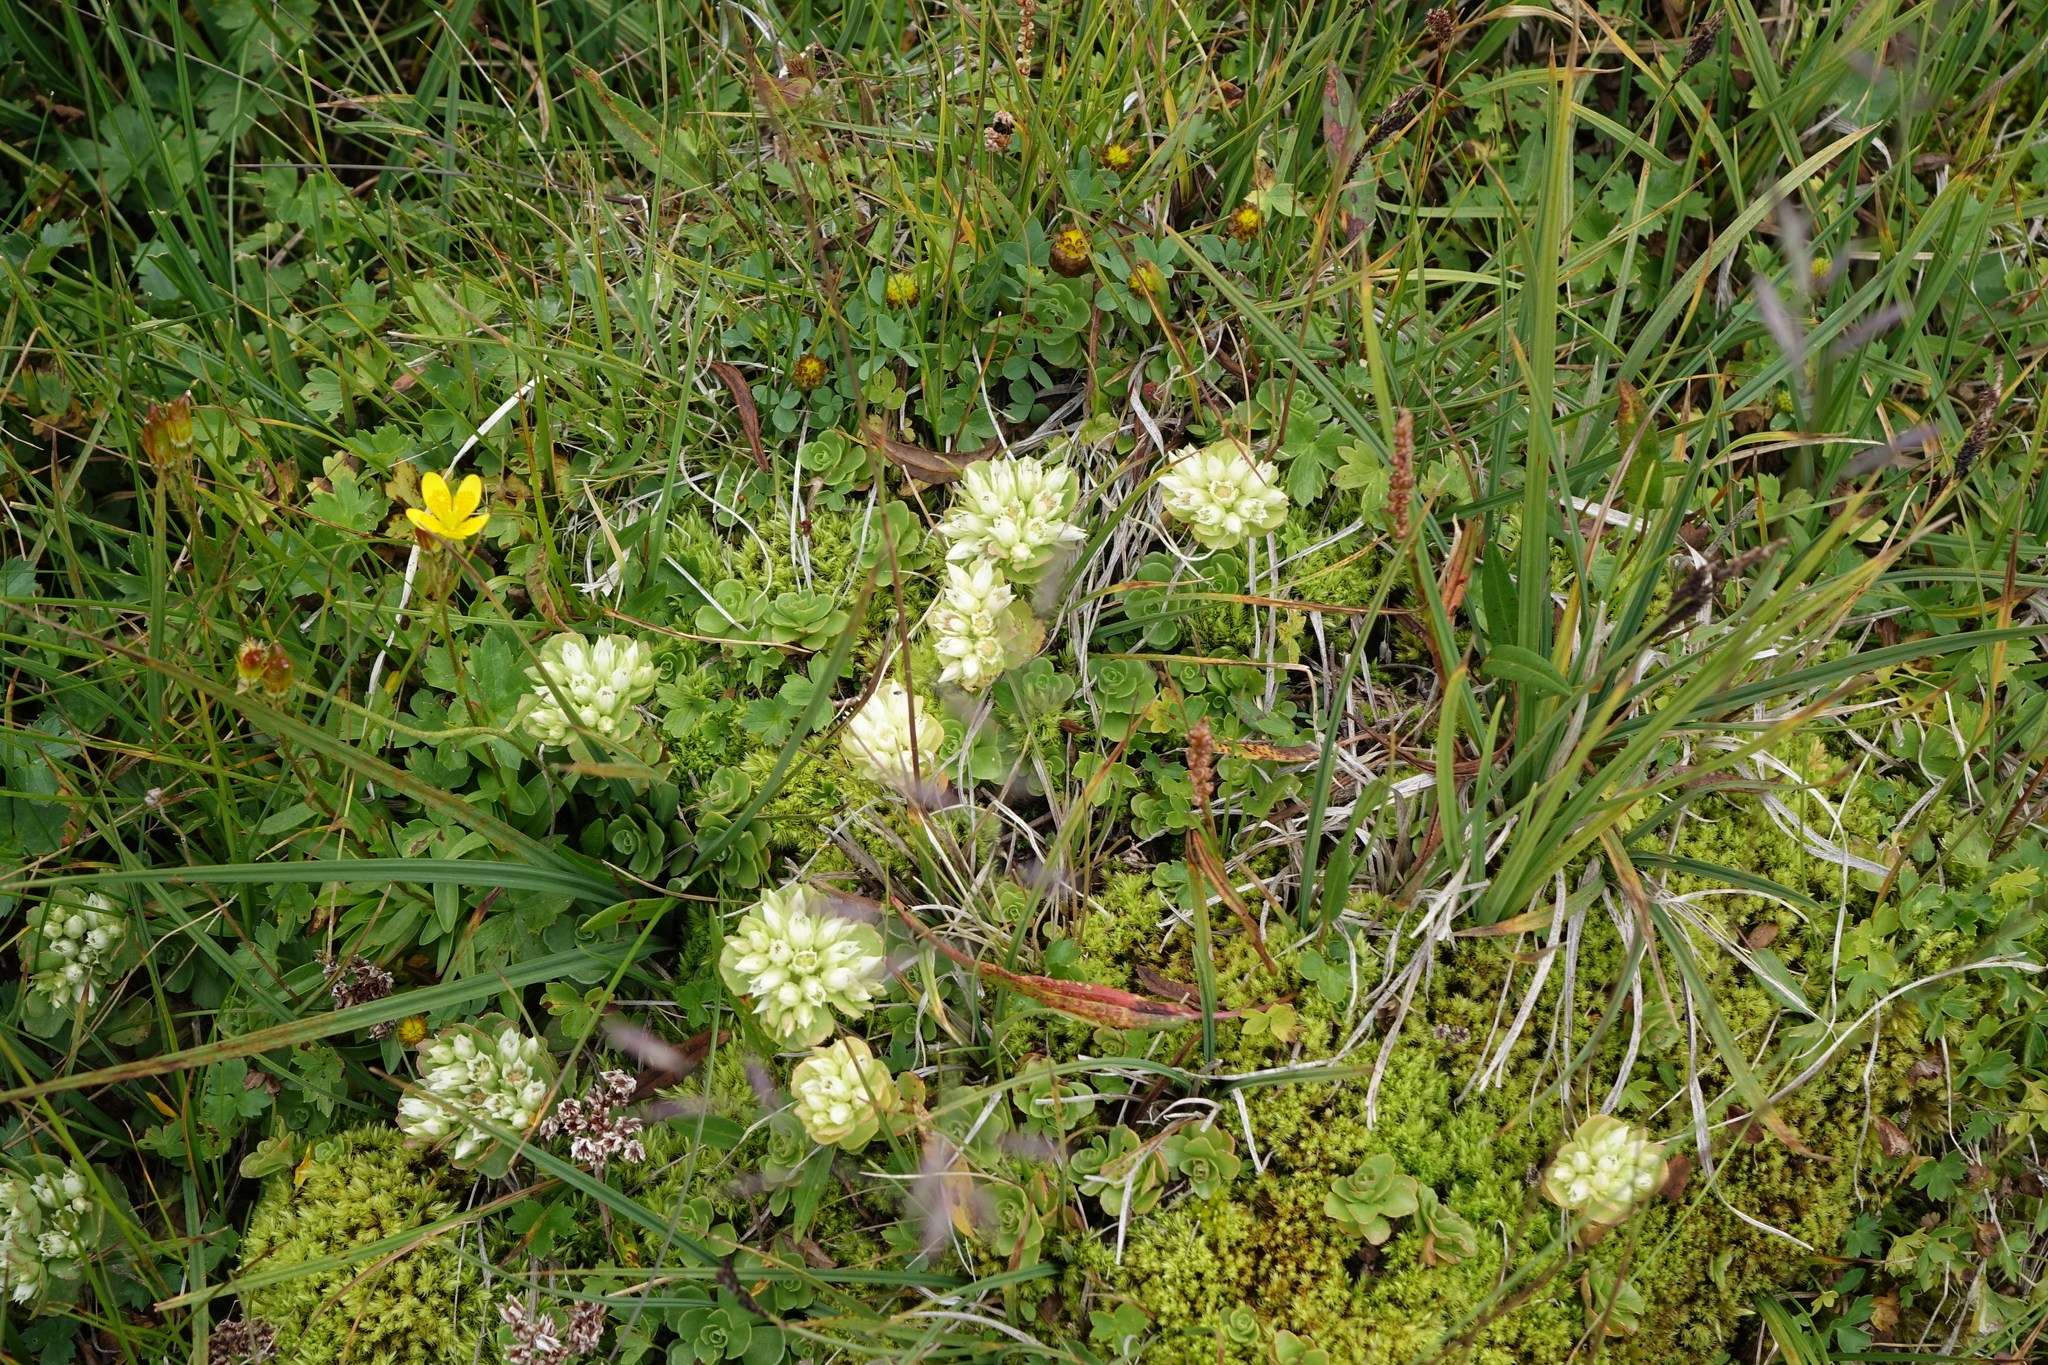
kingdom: Plantae
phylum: Tracheophyta
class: Magnoliopsida
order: Saxifragales
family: Crassulaceae
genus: Phedimus
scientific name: Phedimus spurius
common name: Caucasian stonecrop
